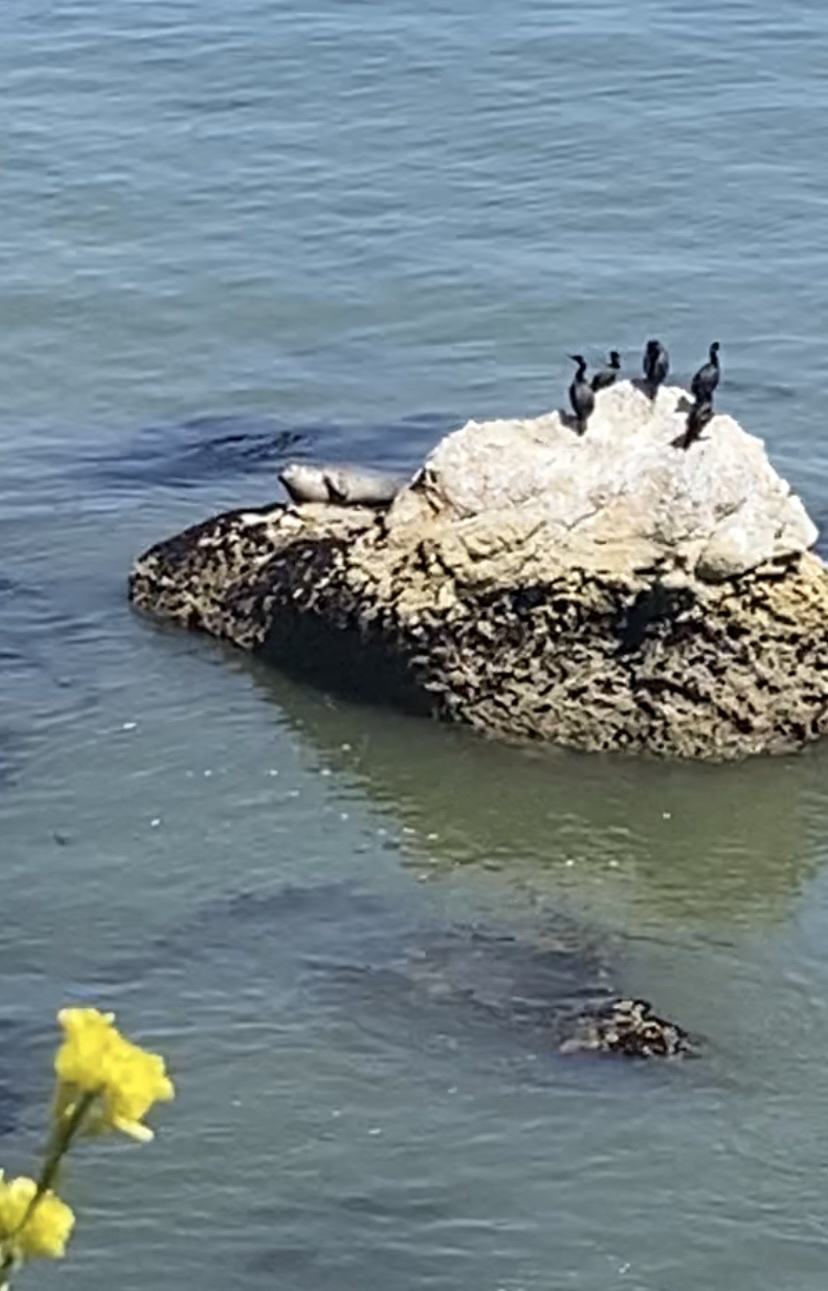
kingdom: Animalia
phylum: Chordata
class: Mammalia
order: Carnivora
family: Phocidae
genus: Phoca
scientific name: Phoca vitulina
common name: Harbor seal
